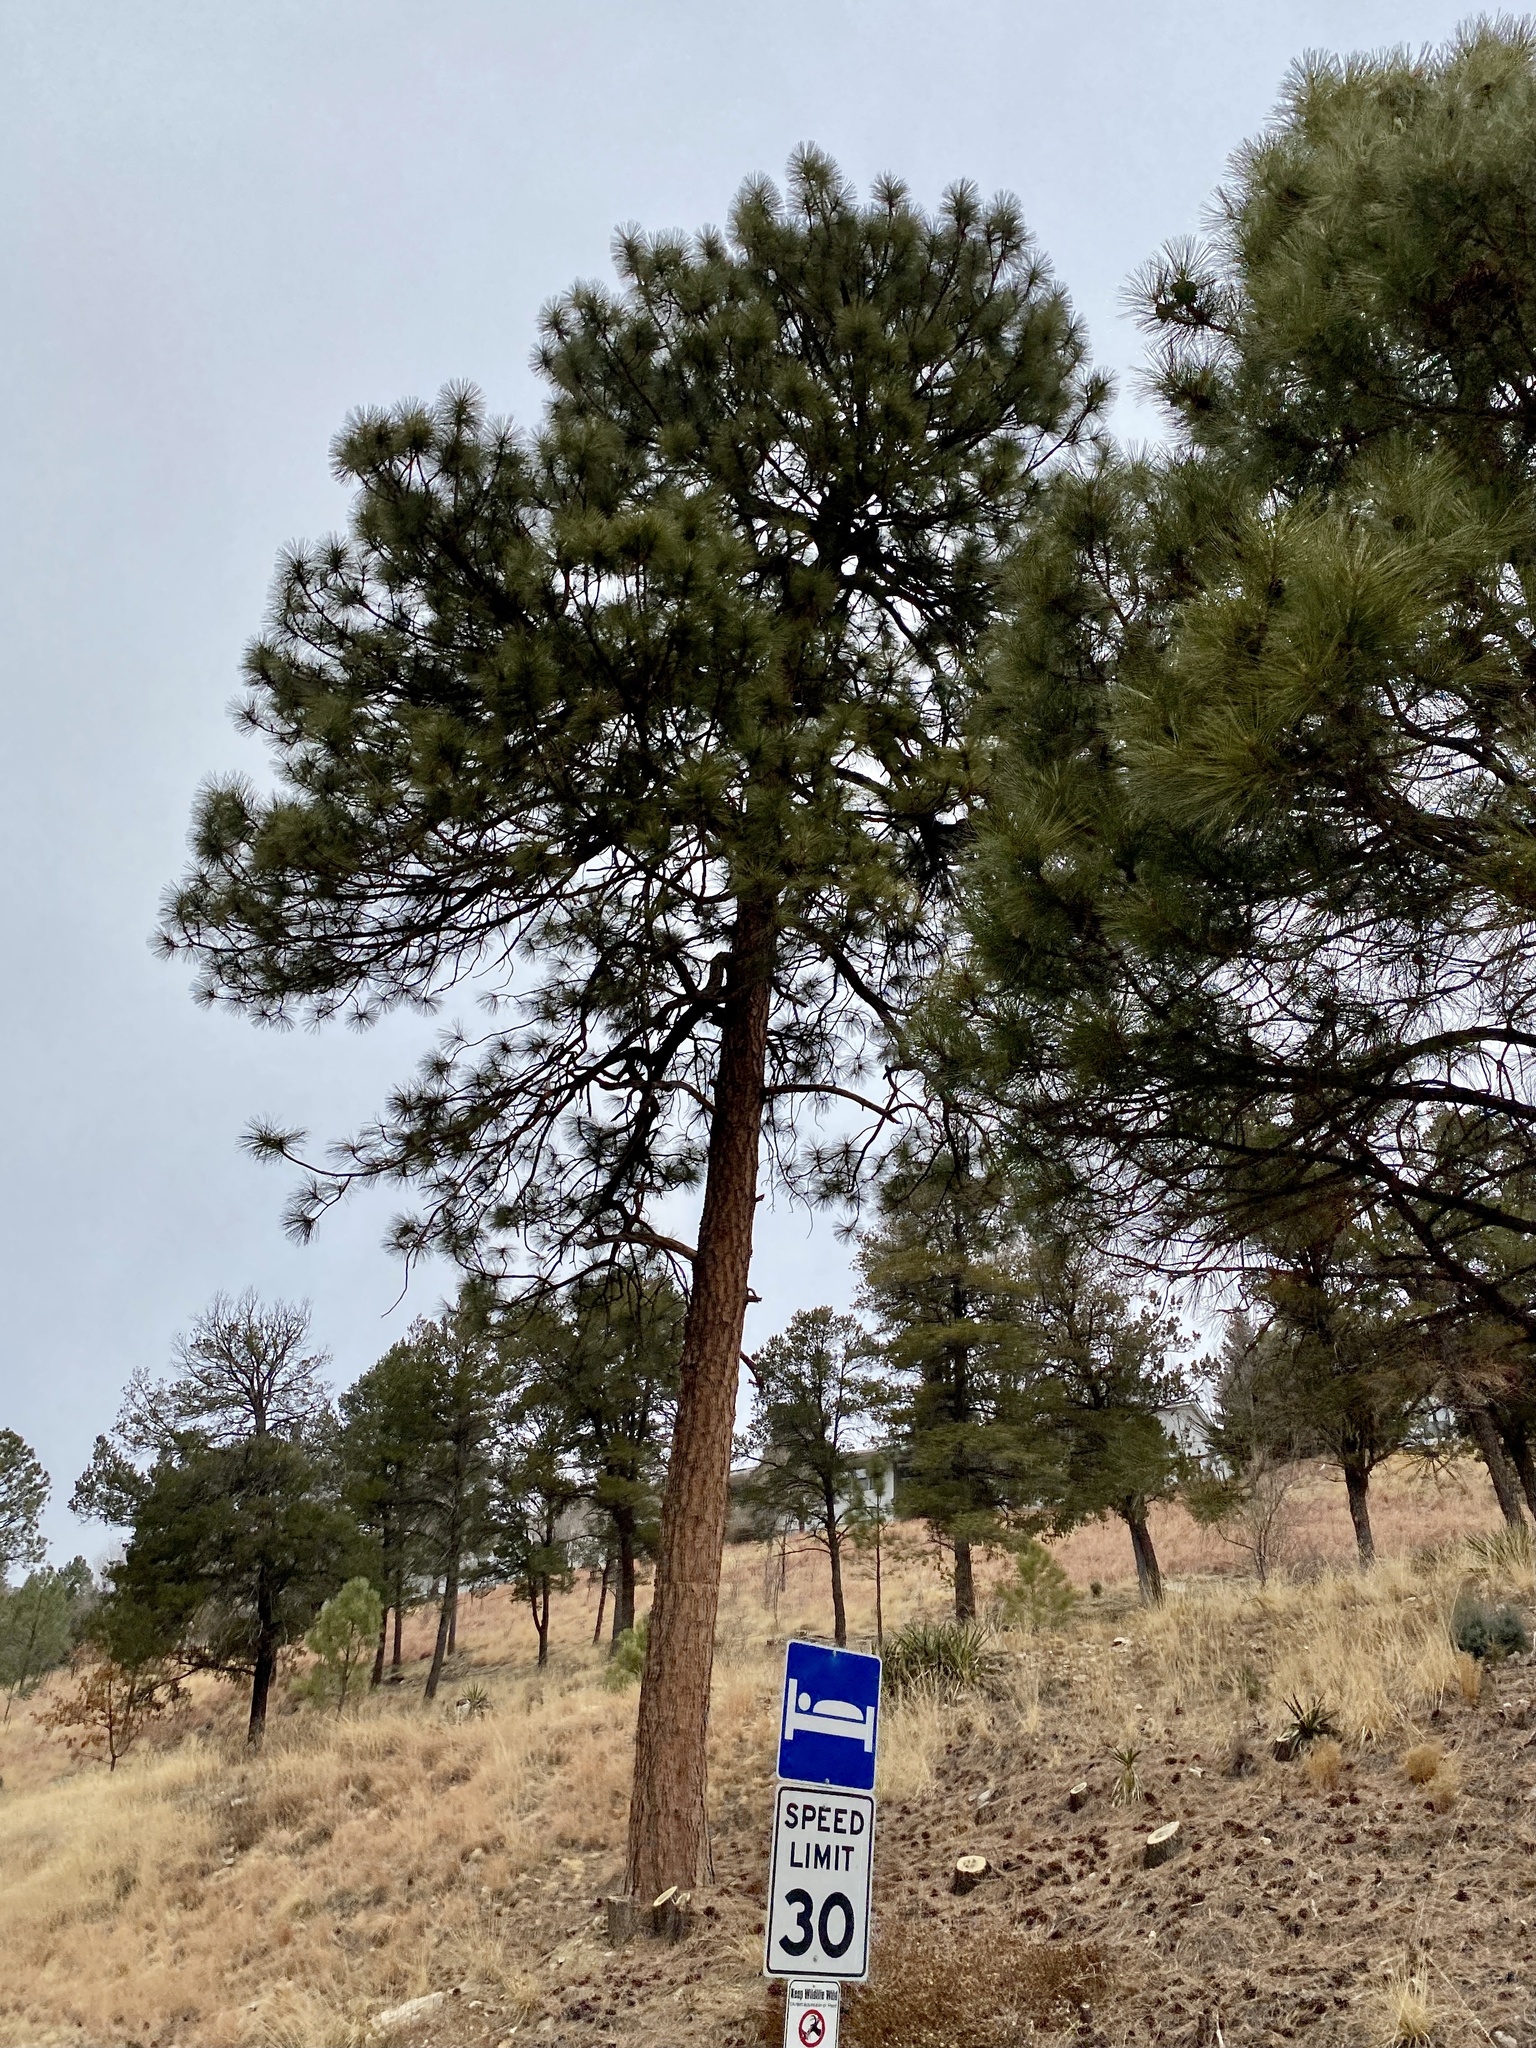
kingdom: Plantae
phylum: Tracheophyta
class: Pinopsida
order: Pinales
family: Pinaceae
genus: Pinus
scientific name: Pinus ponderosa
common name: Western yellow-pine
